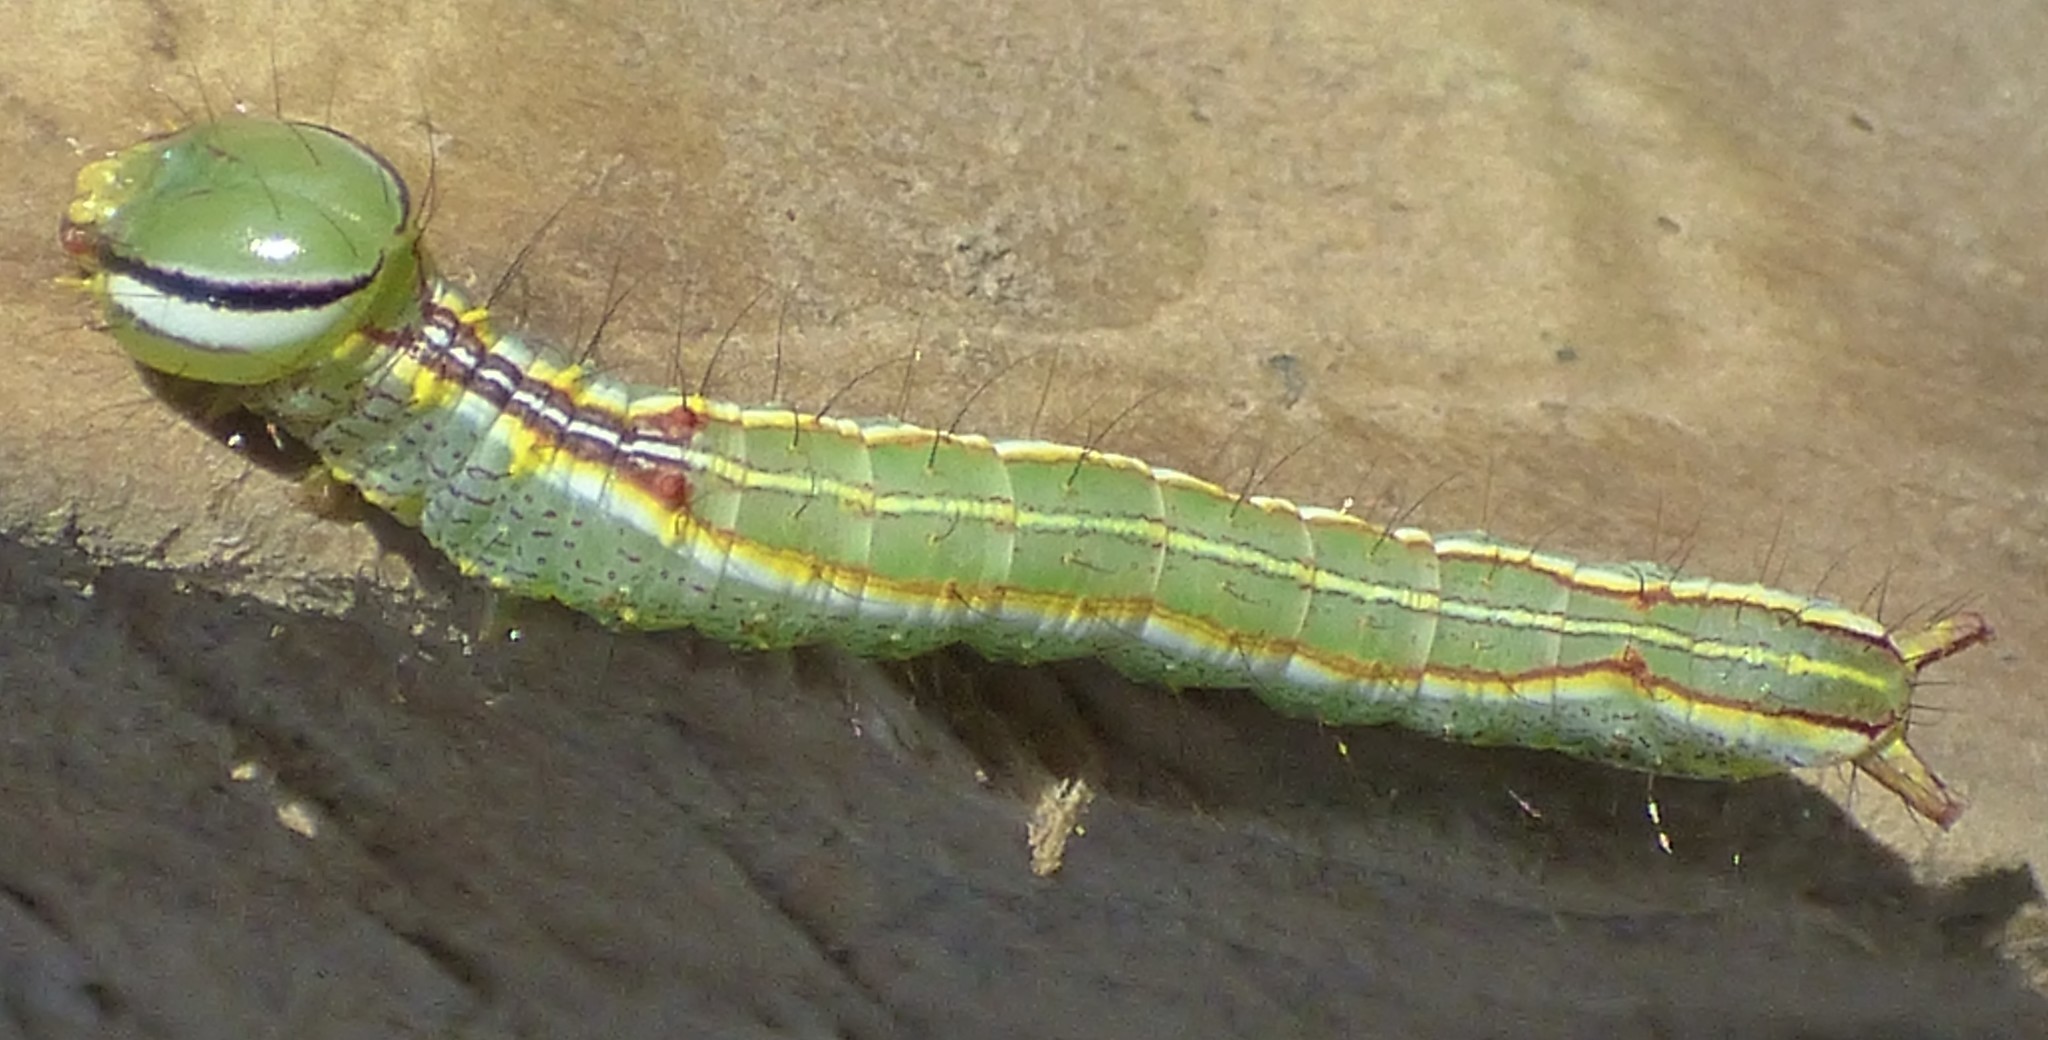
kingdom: Animalia
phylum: Arthropoda
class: Insecta
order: Lepidoptera
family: Notodontidae
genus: Lochmaeus
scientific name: Lochmaeus manteo
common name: Variable oakleaf caterpillar moth
